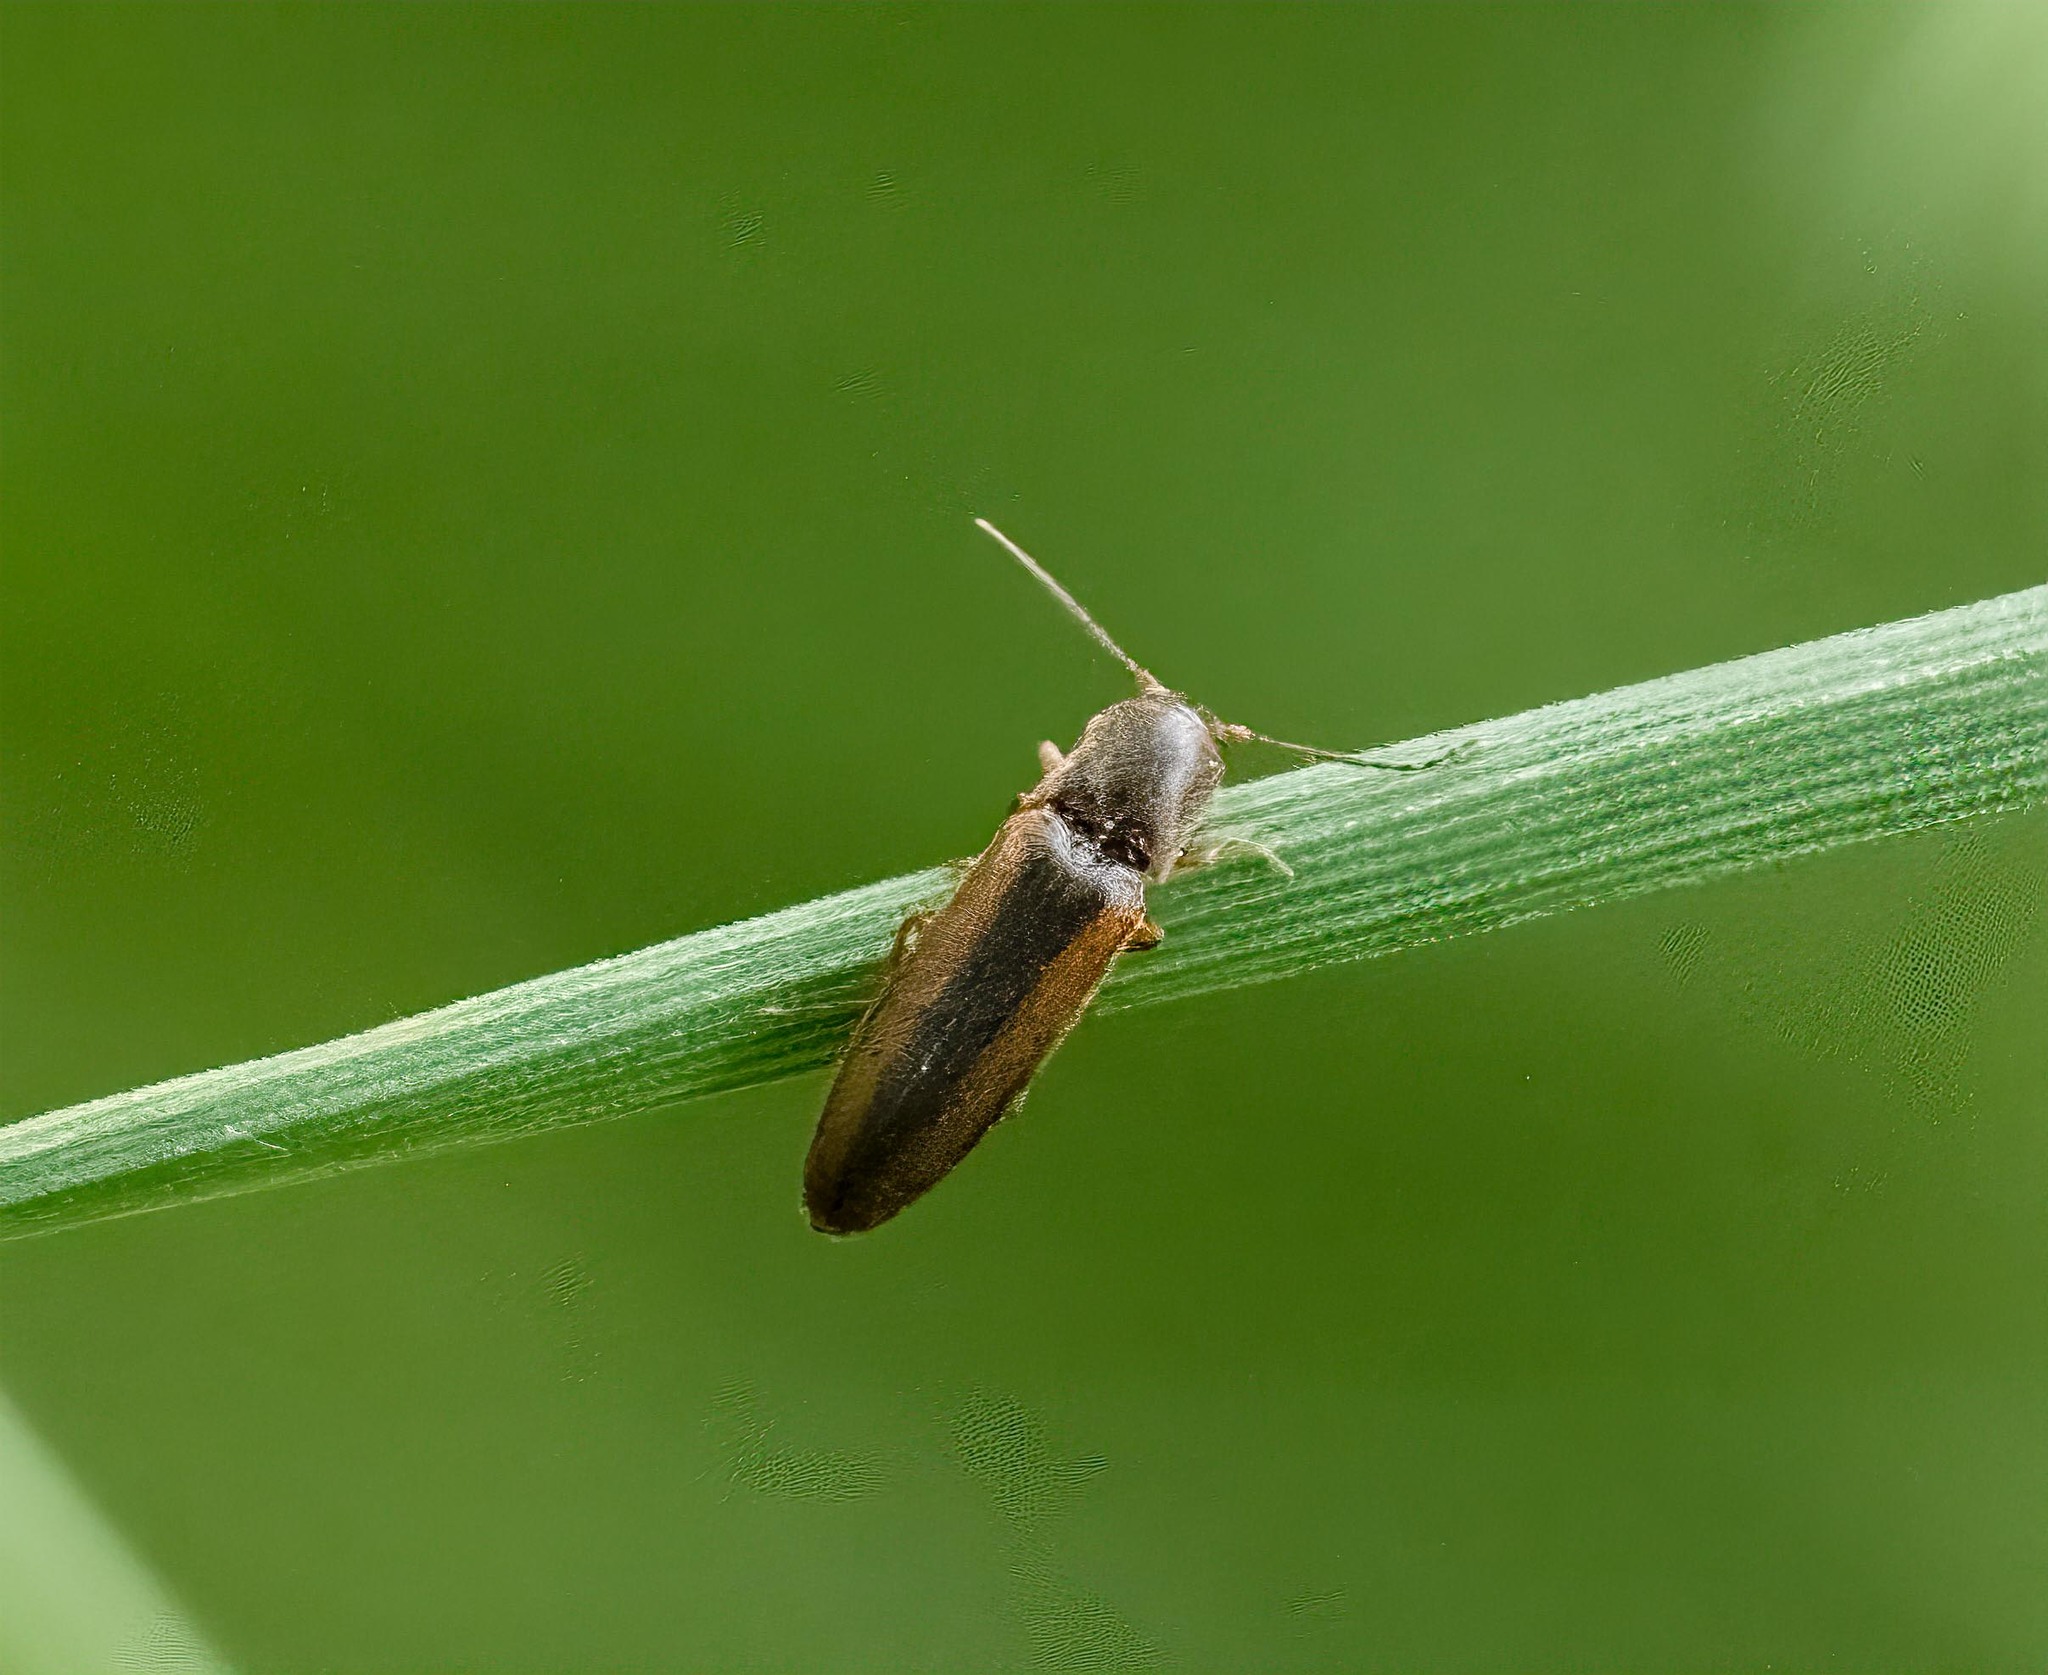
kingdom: Animalia
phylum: Arthropoda
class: Insecta
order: Coleoptera
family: Elateridae
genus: Dalopius
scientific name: Dalopius marginatus
